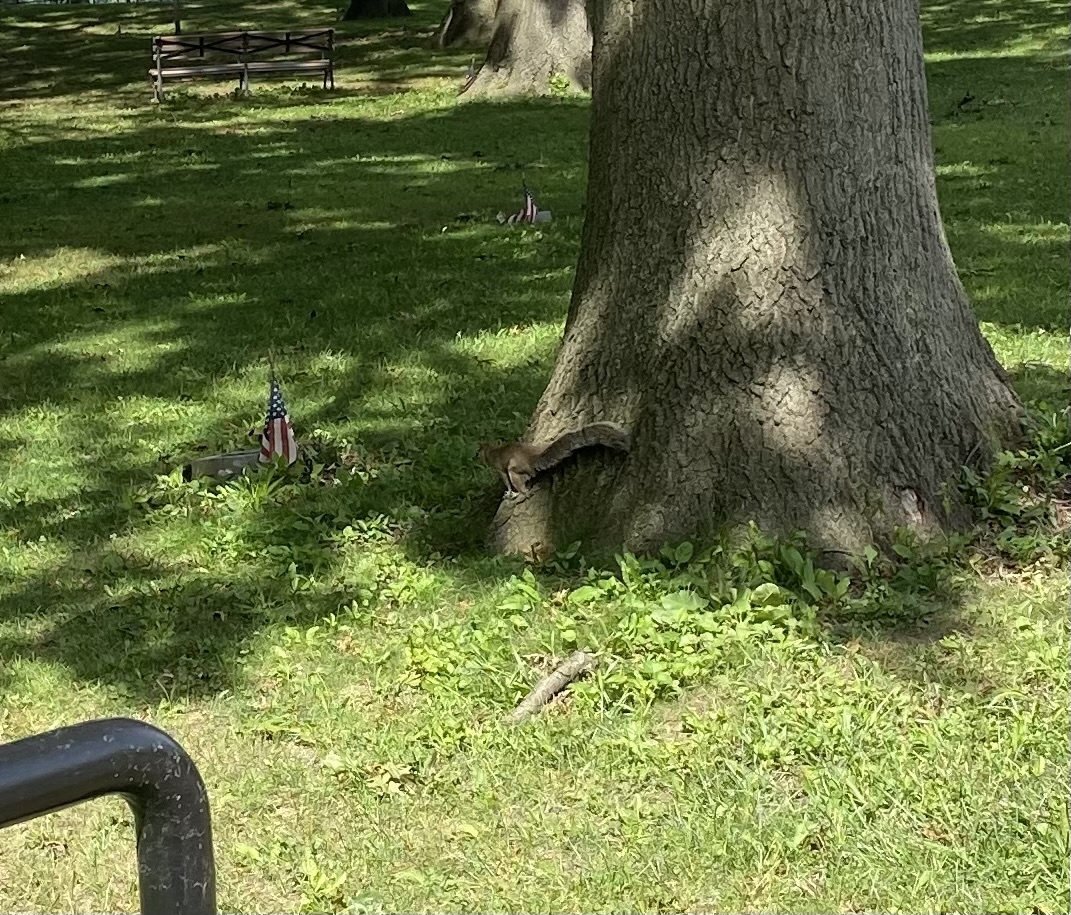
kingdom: Animalia
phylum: Chordata
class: Mammalia
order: Rodentia
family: Sciuridae
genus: Sciurus
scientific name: Sciurus carolinensis
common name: Eastern gray squirrel
